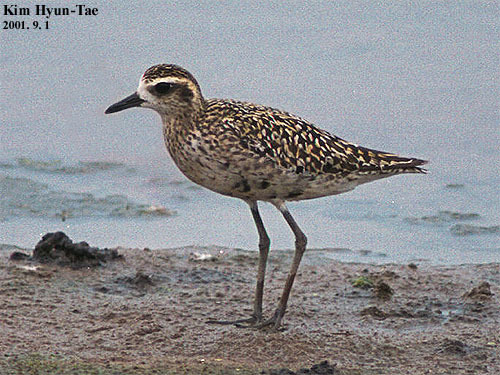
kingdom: Animalia
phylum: Chordata
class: Aves
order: Charadriiformes
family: Charadriidae
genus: Pluvialis
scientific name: Pluvialis fulva
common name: Pacific golden plover
